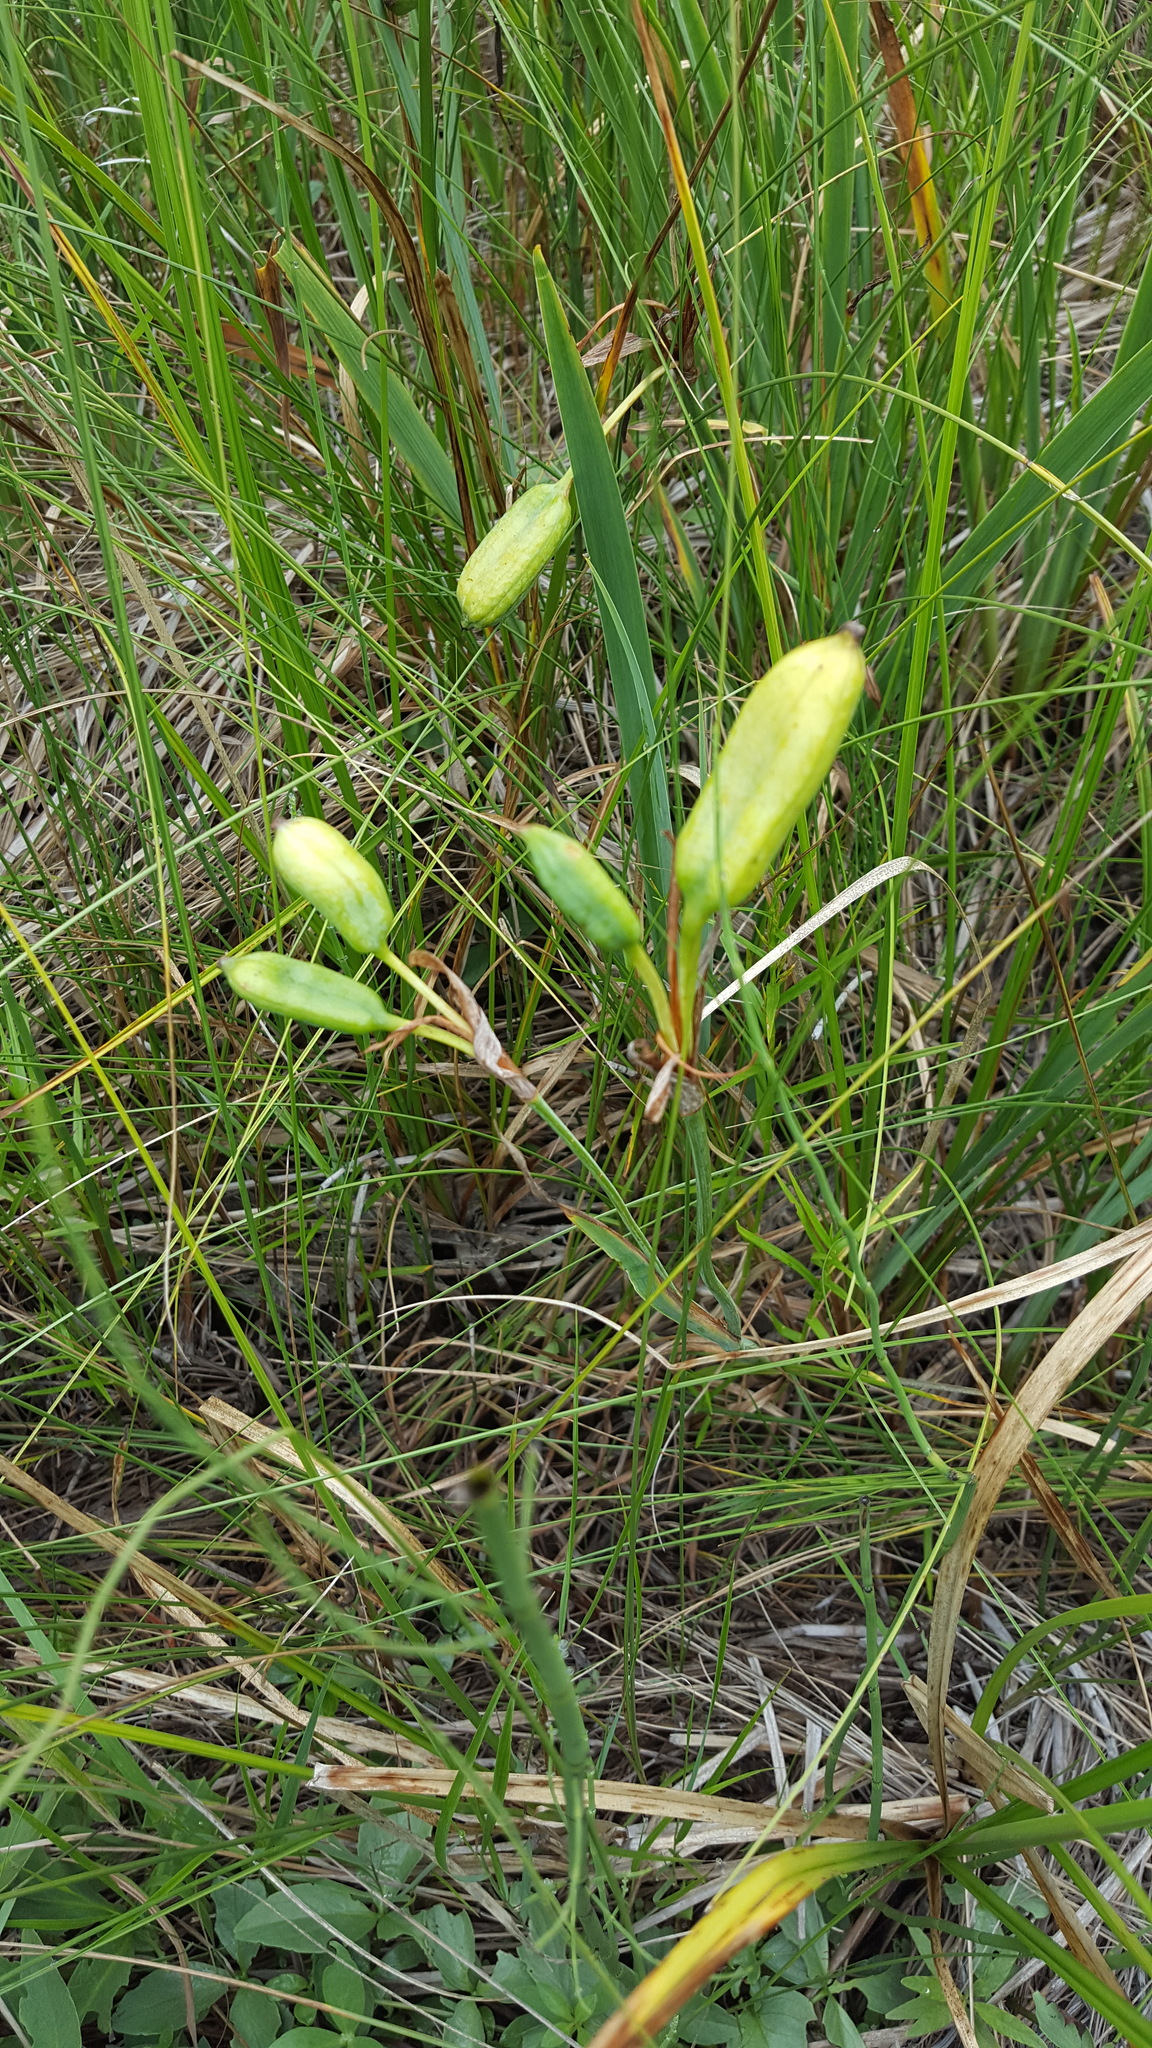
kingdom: Plantae
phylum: Tracheophyta
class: Liliopsida
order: Asparagales
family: Iridaceae
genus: Iris
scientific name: Iris versicolor
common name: Purple iris
